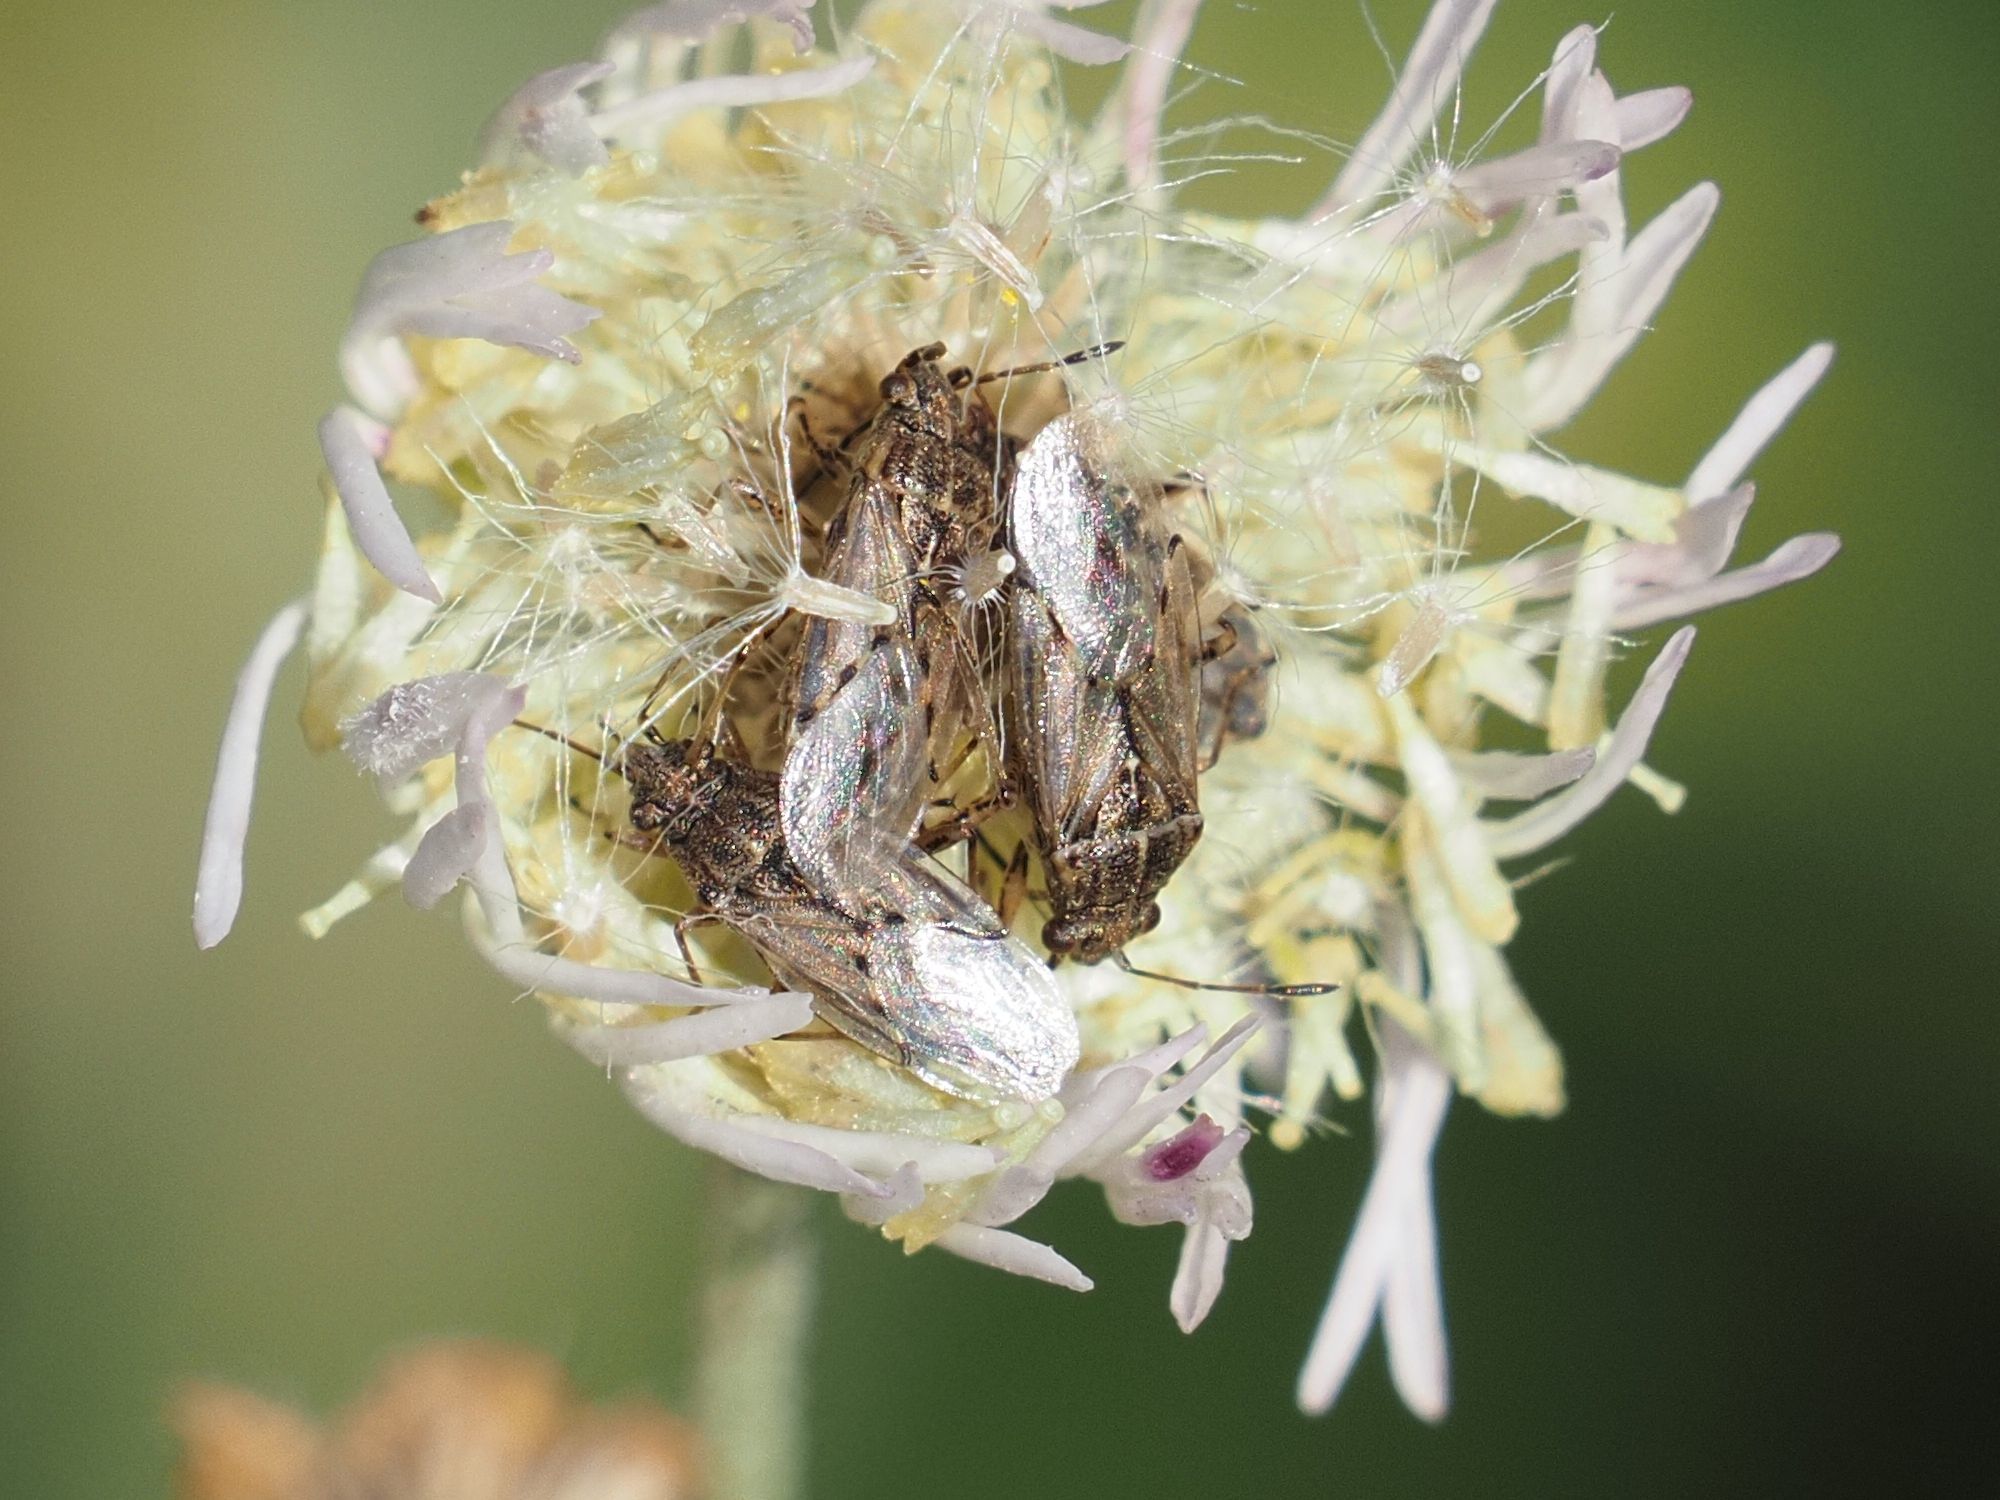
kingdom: Animalia
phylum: Arthropoda
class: Insecta
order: Hemiptera
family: Lygaeidae
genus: Nysius
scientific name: Nysius
